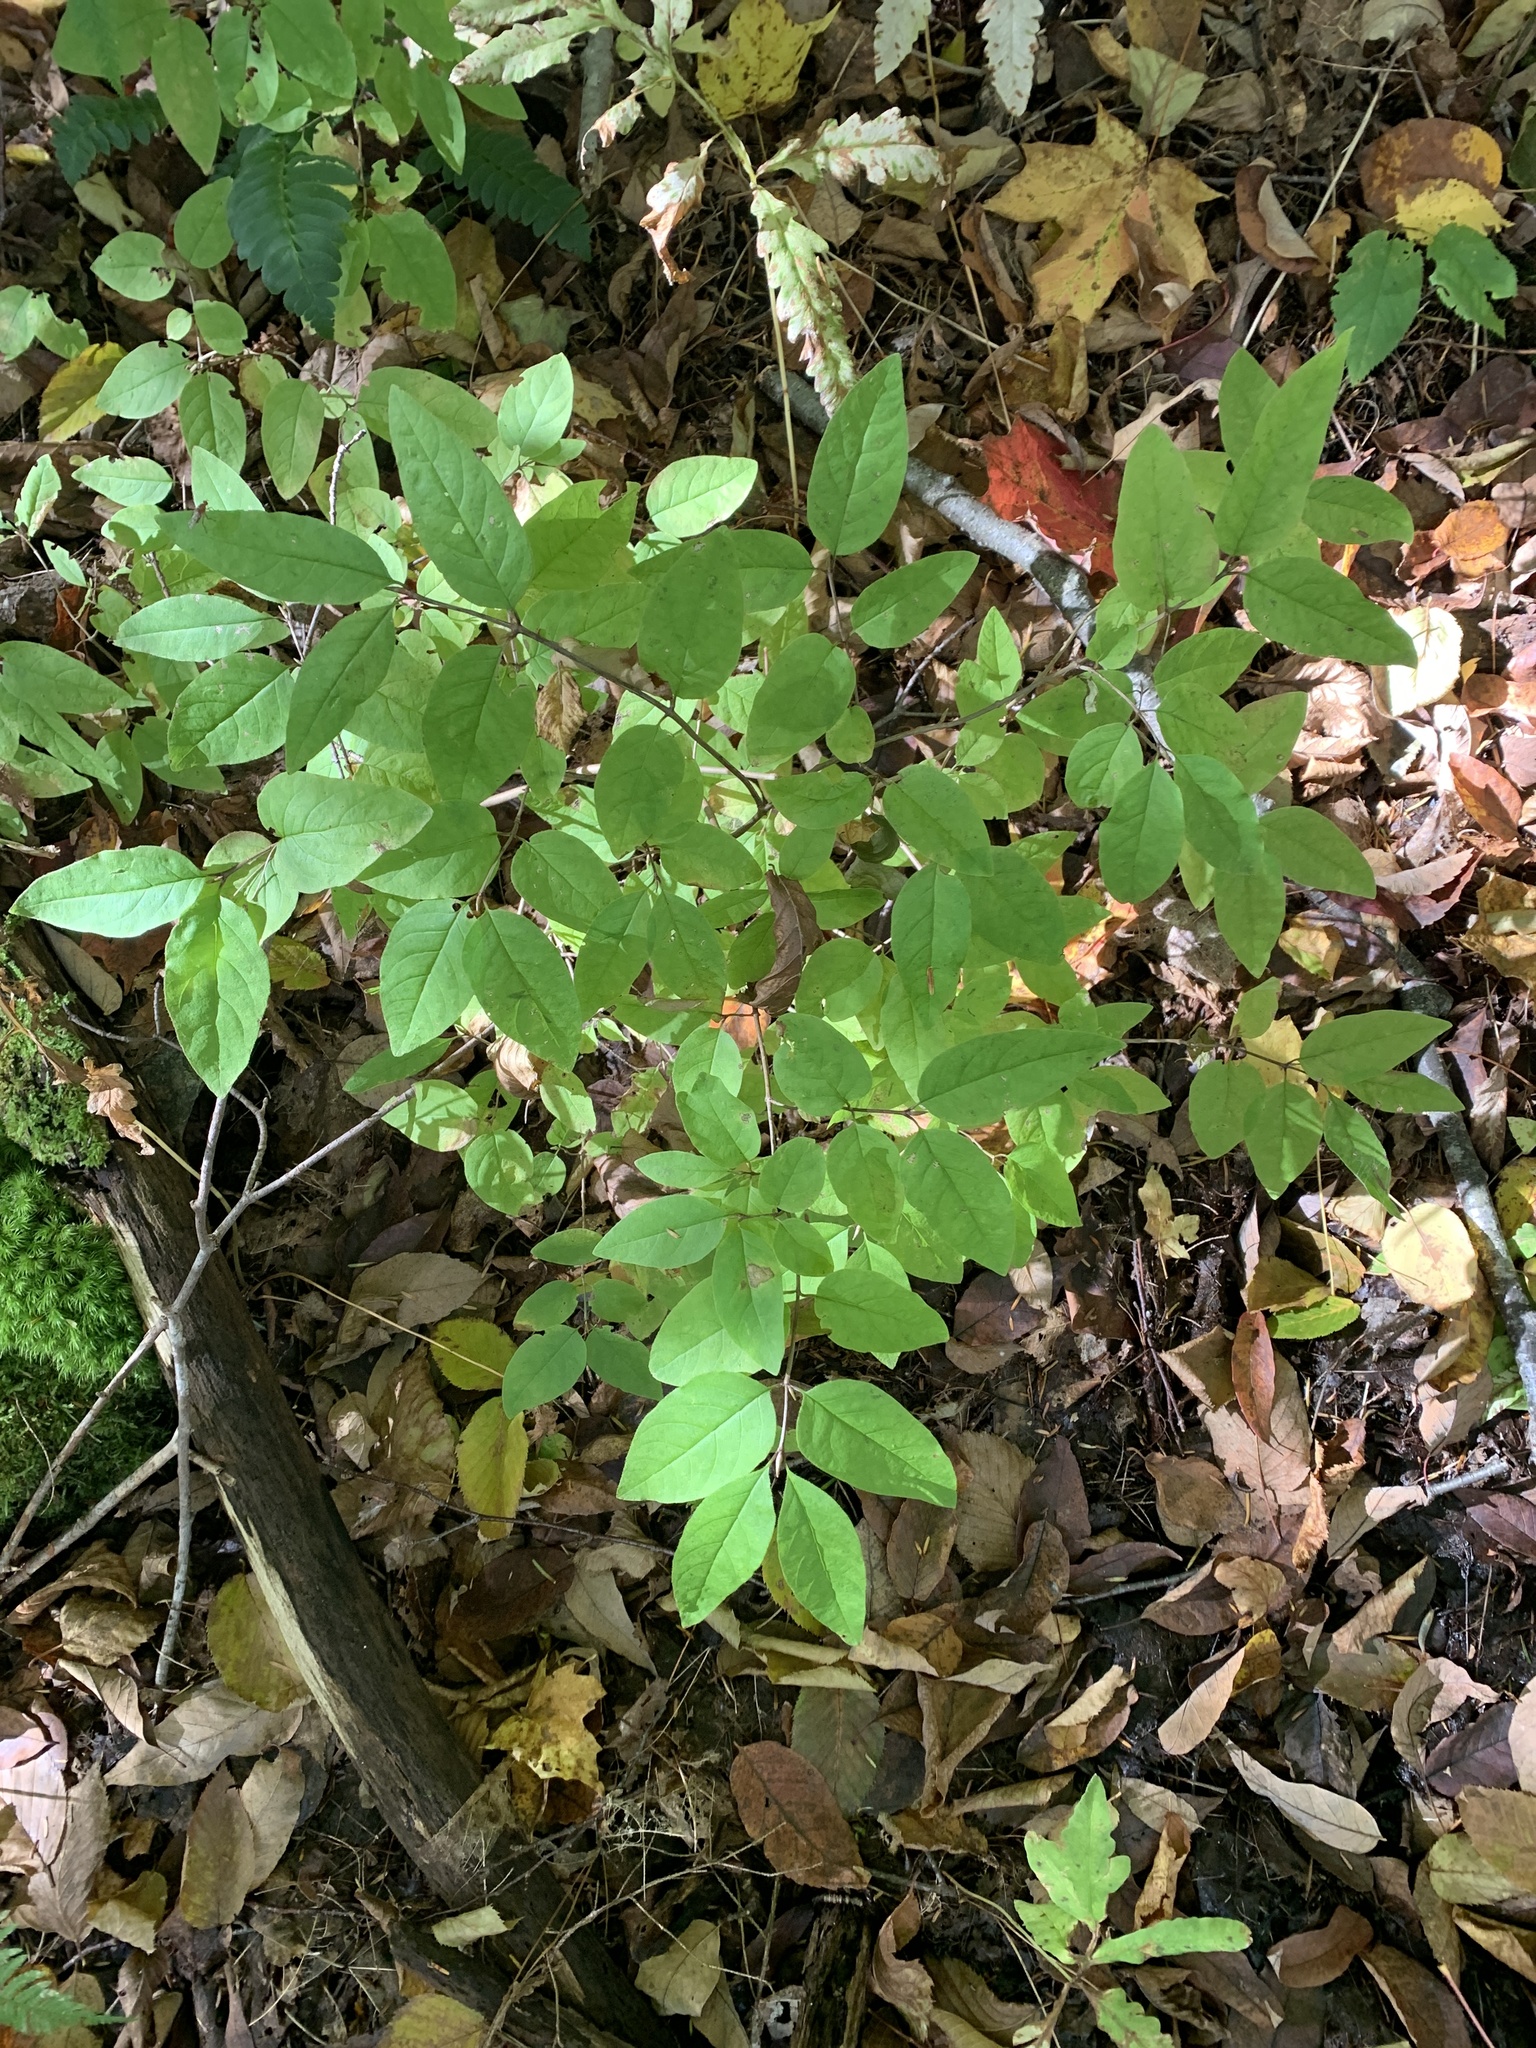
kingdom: Plantae
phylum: Tracheophyta
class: Magnoliopsida
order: Dipsacales
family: Caprifoliaceae
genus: Lonicera
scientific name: Lonicera canadensis
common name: American fly-honeysuckle
